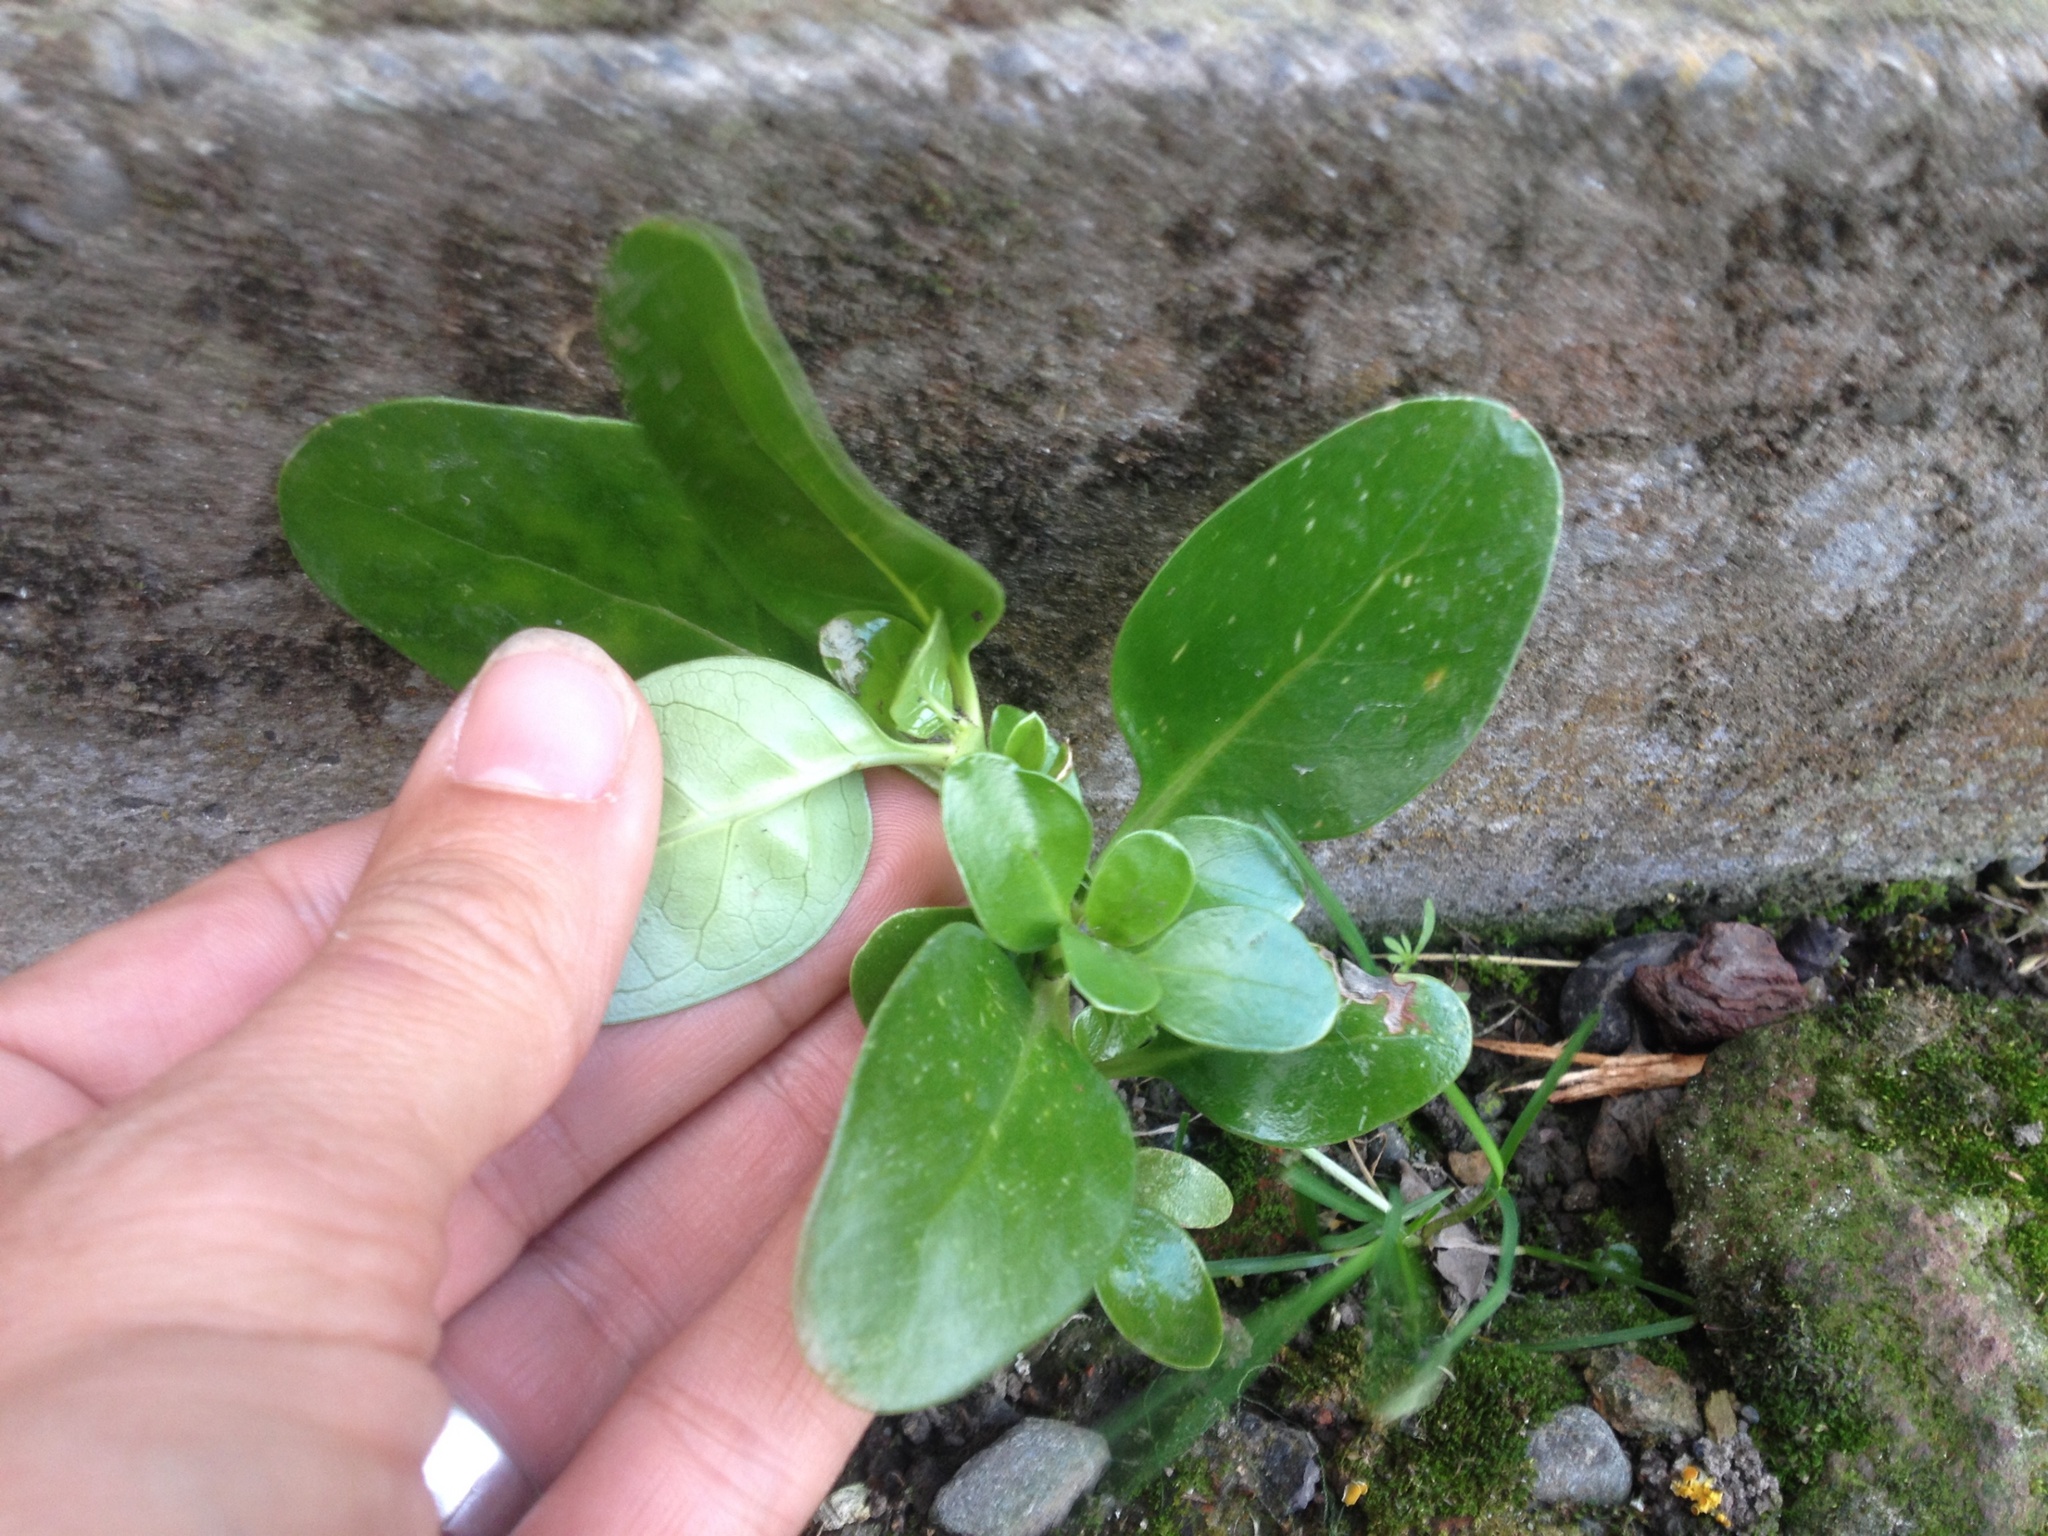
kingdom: Plantae
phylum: Tracheophyta
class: Magnoliopsida
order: Gentianales
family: Rubiaceae
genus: Coprosma
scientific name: Coprosma repens
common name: Tree bedstraw
